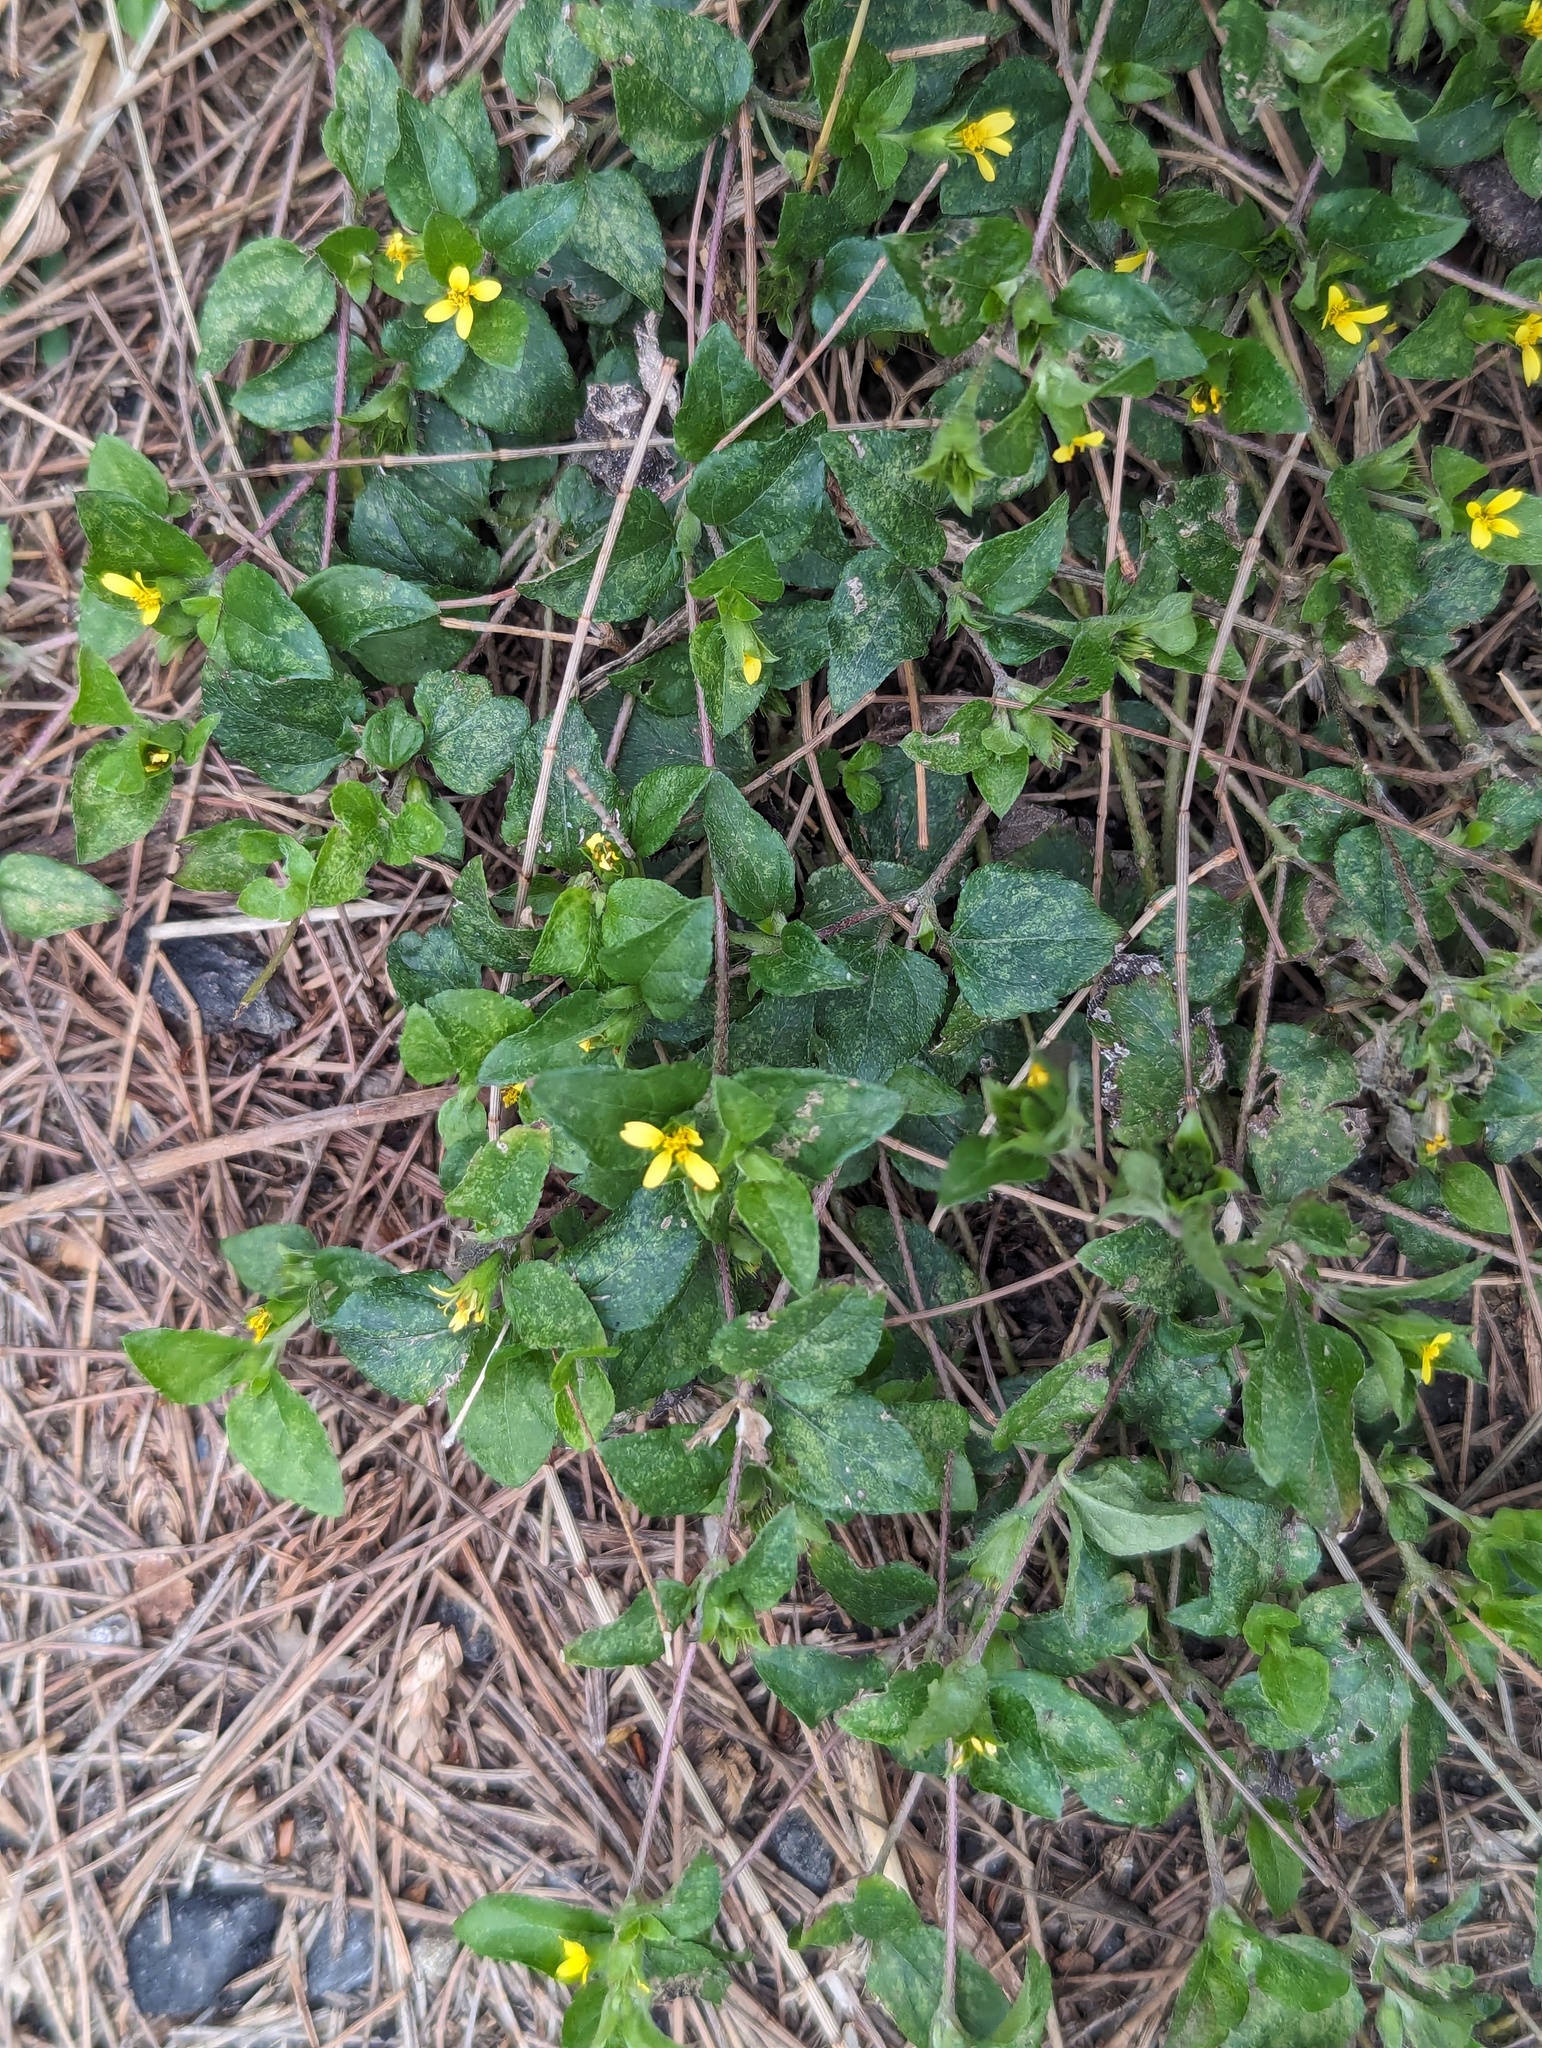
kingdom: Plantae
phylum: Tracheophyta
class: Magnoliopsida
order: Asterales
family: Asteraceae
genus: Calyptocarpus
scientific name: Calyptocarpus vialis
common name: Straggler daisy
